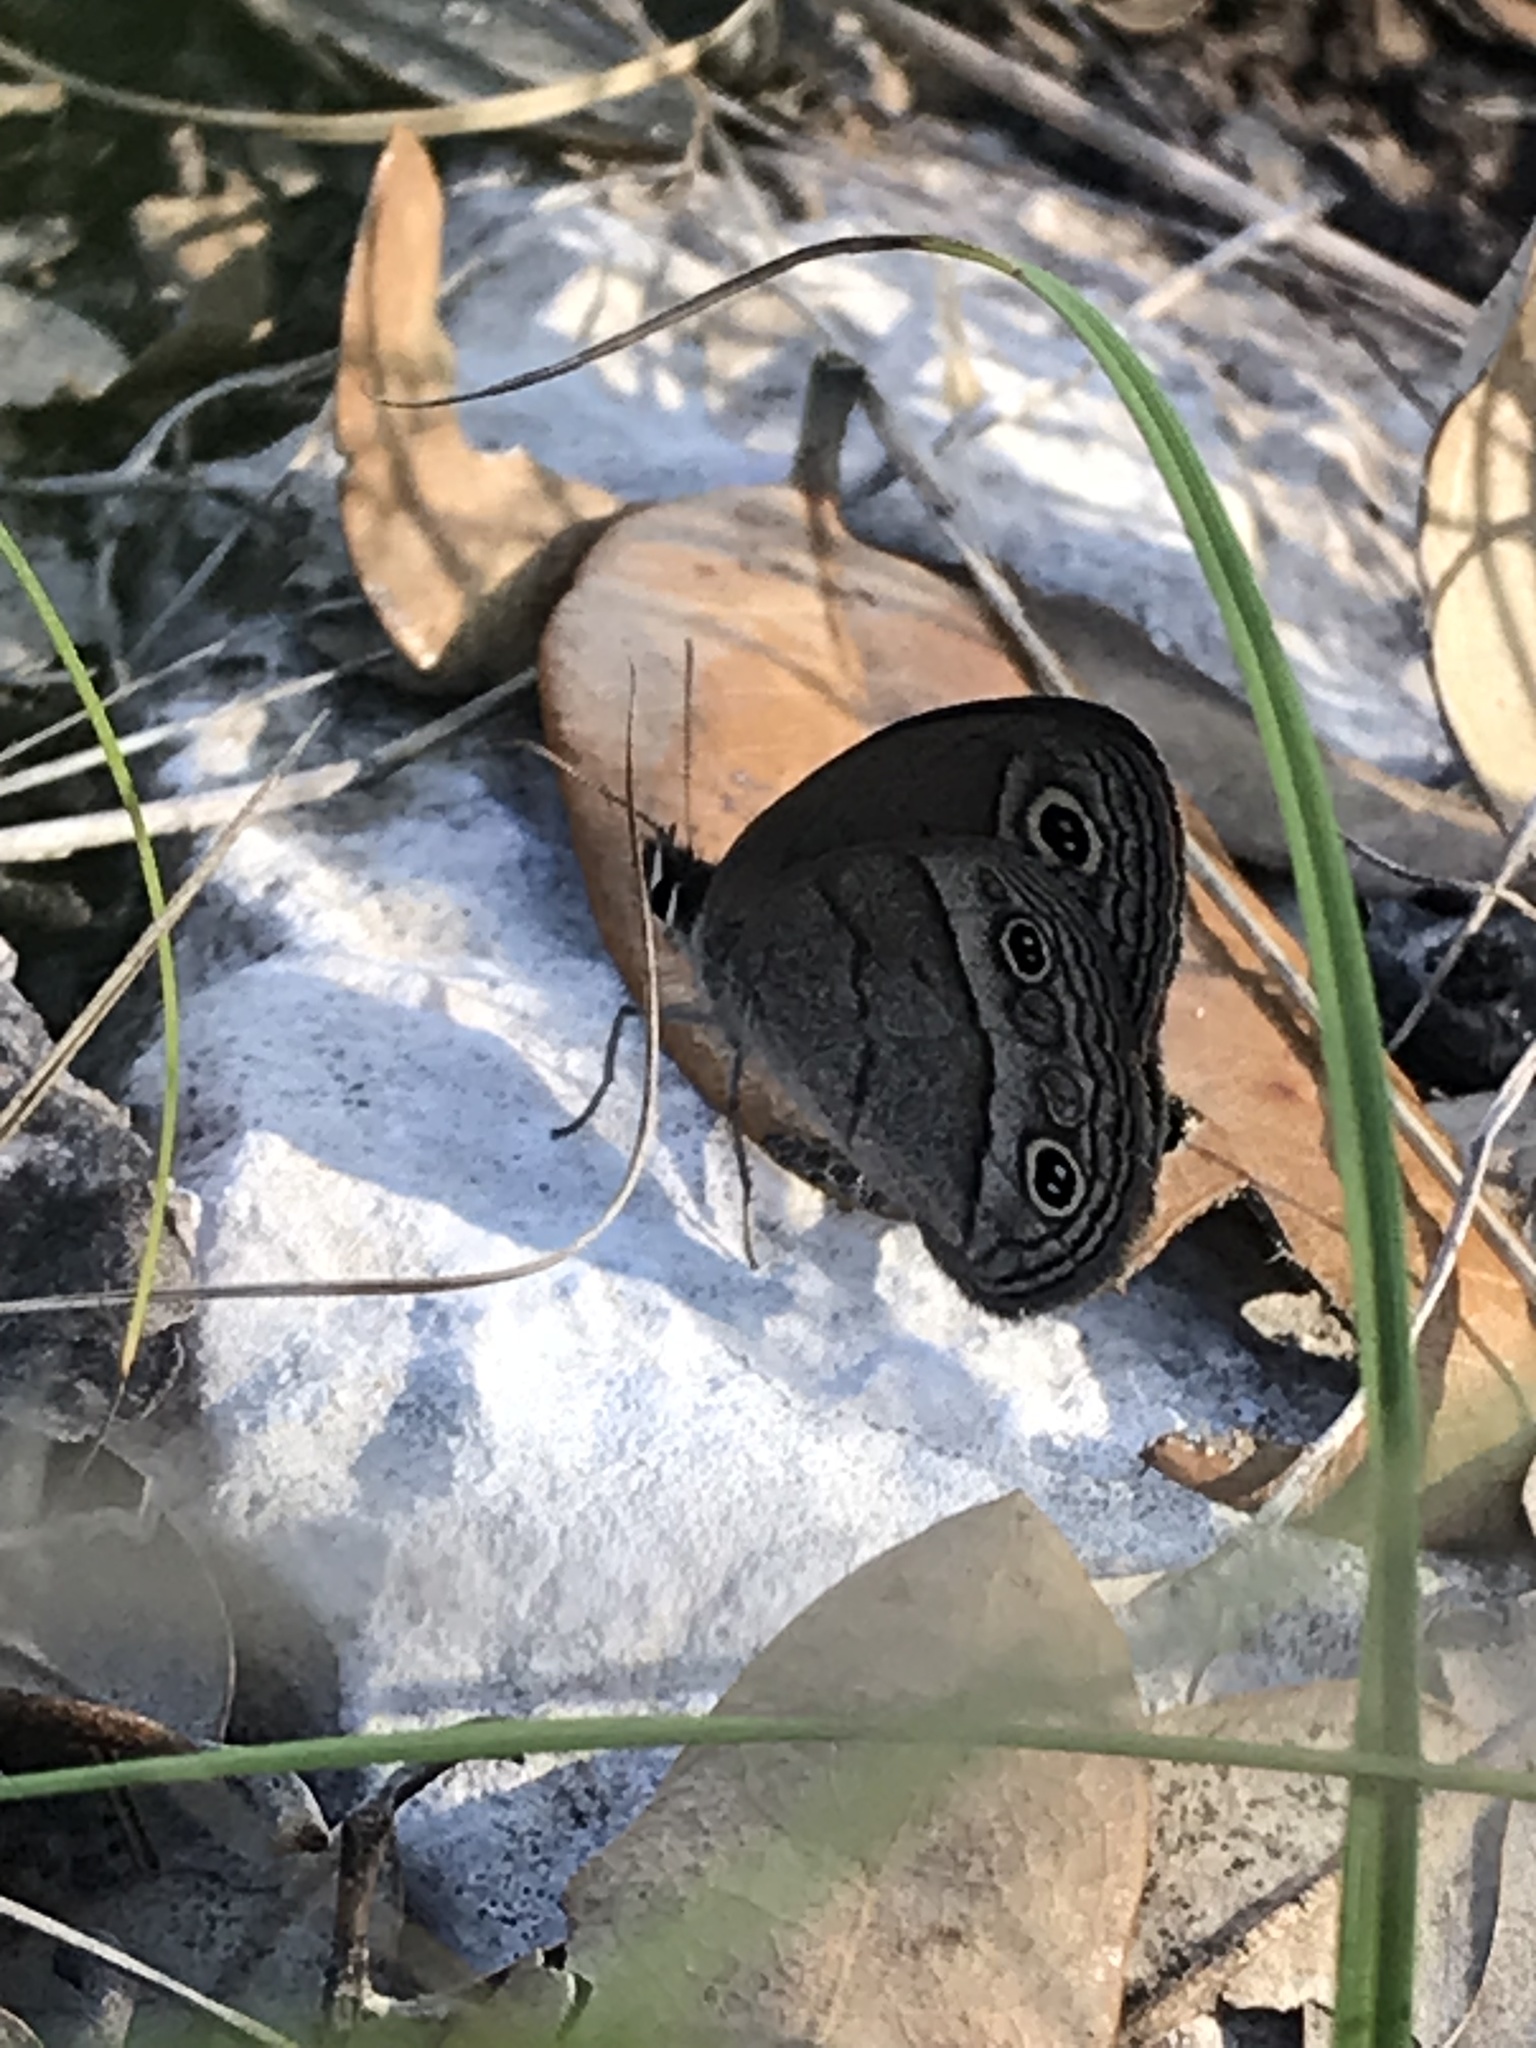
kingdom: Animalia
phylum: Arthropoda
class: Insecta
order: Lepidoptera
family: Nymphalidae
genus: Euptychia
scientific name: Euptychia Cissia rubricata
